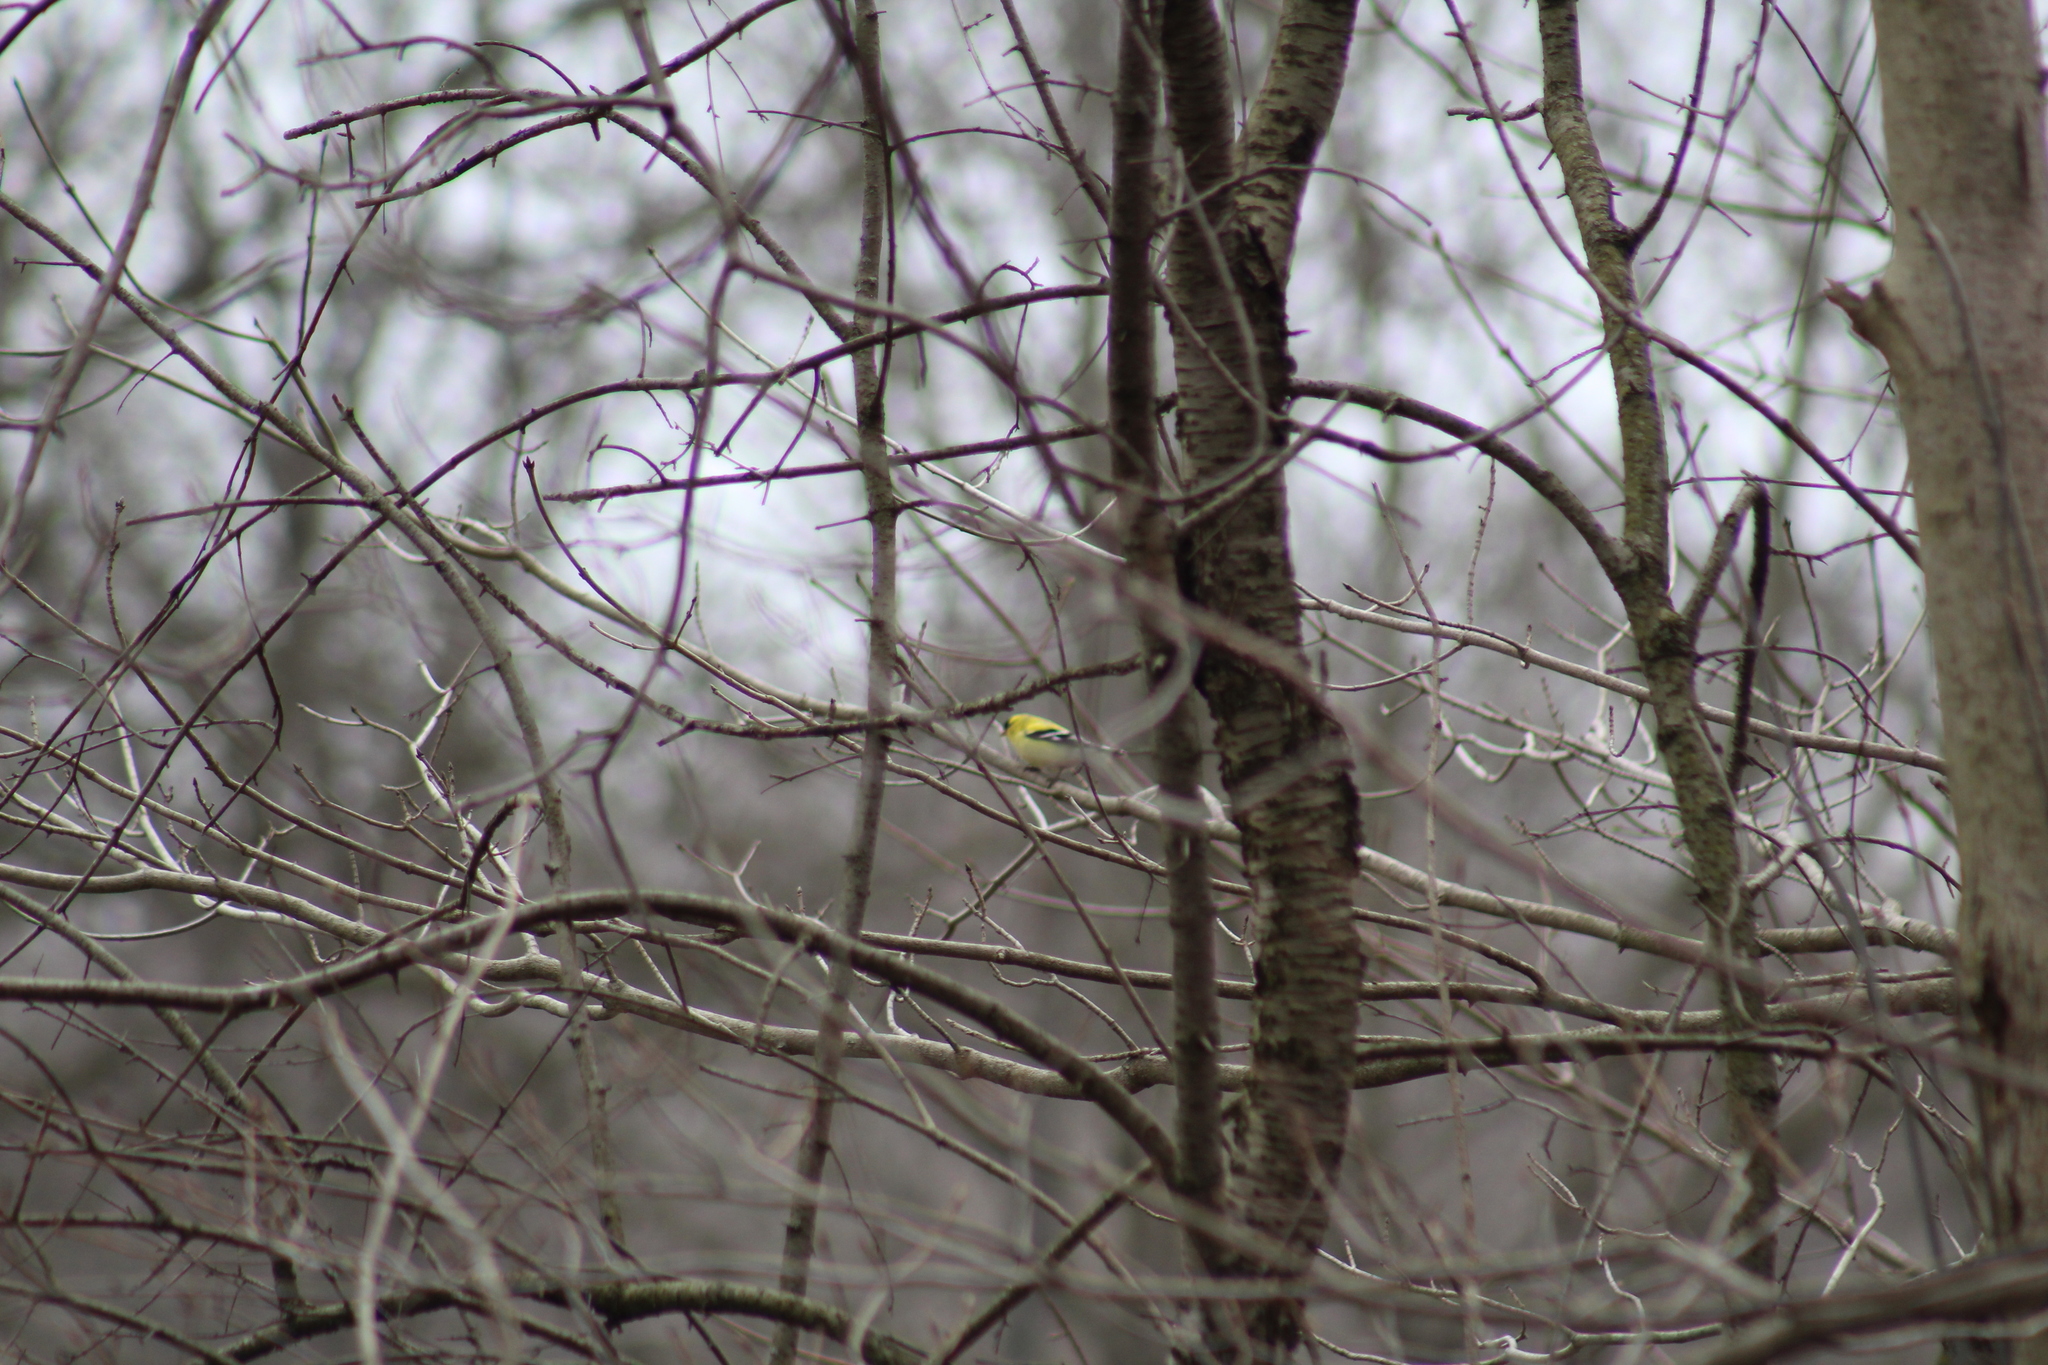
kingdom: Animalia
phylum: Chordata
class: Aves
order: Passeriformes
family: Fringillidae
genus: Spinus
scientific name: Spinus tristis
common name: American goldfinch
